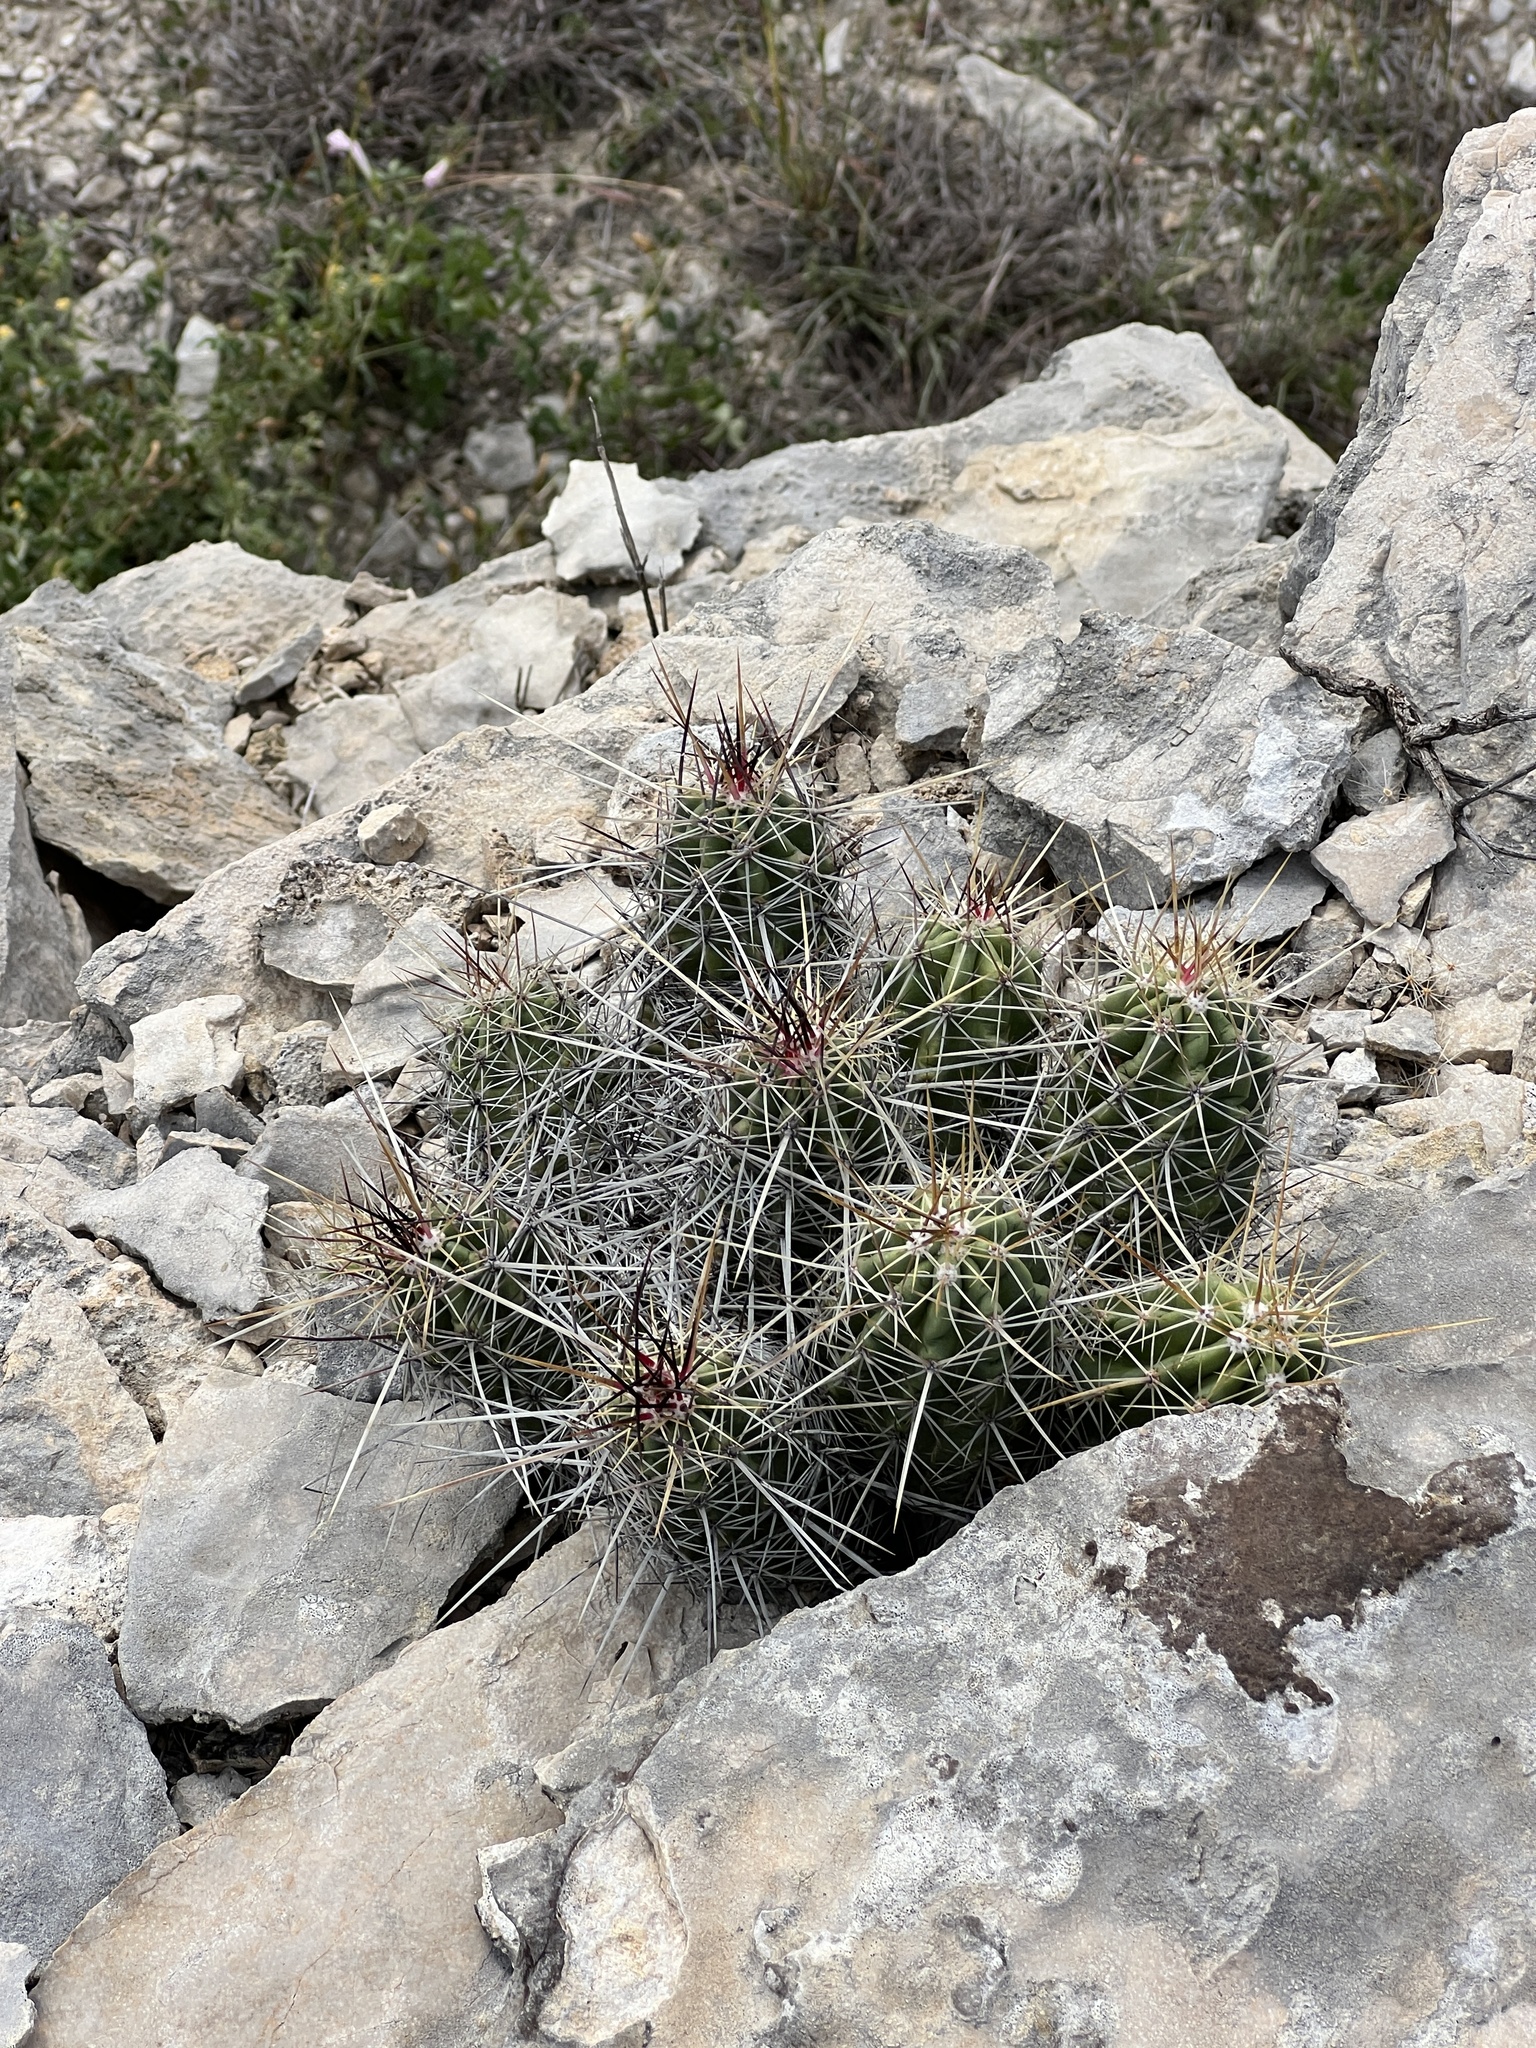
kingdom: Plantae
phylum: Tracheophyta
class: Magnoliopsida
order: Caryophyllales
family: Cactaceae
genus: Echinocereus
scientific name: Echinocereus enneacanthus
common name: Pitaya
